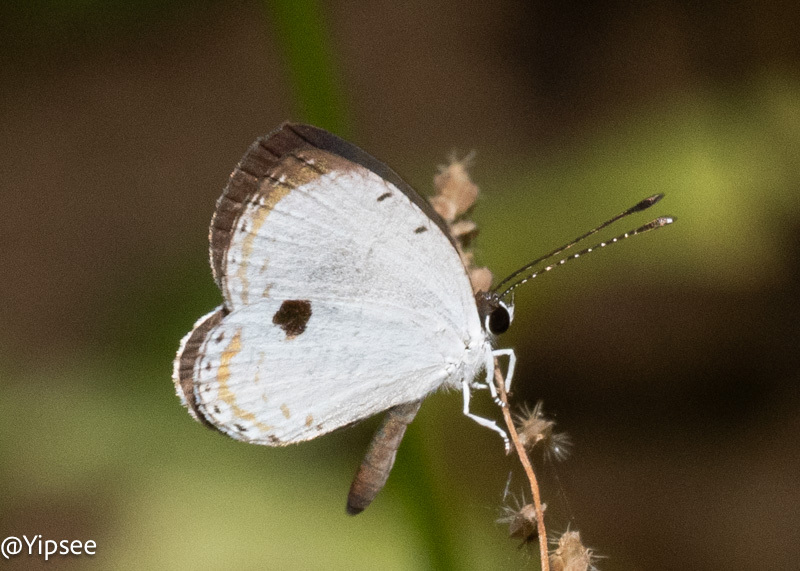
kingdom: Animalia
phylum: Arthropoda
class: Insecta
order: Lepidoptera
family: Lycaenidae
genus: Pithecops
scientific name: Pithecops corvus
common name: Forest quaker
